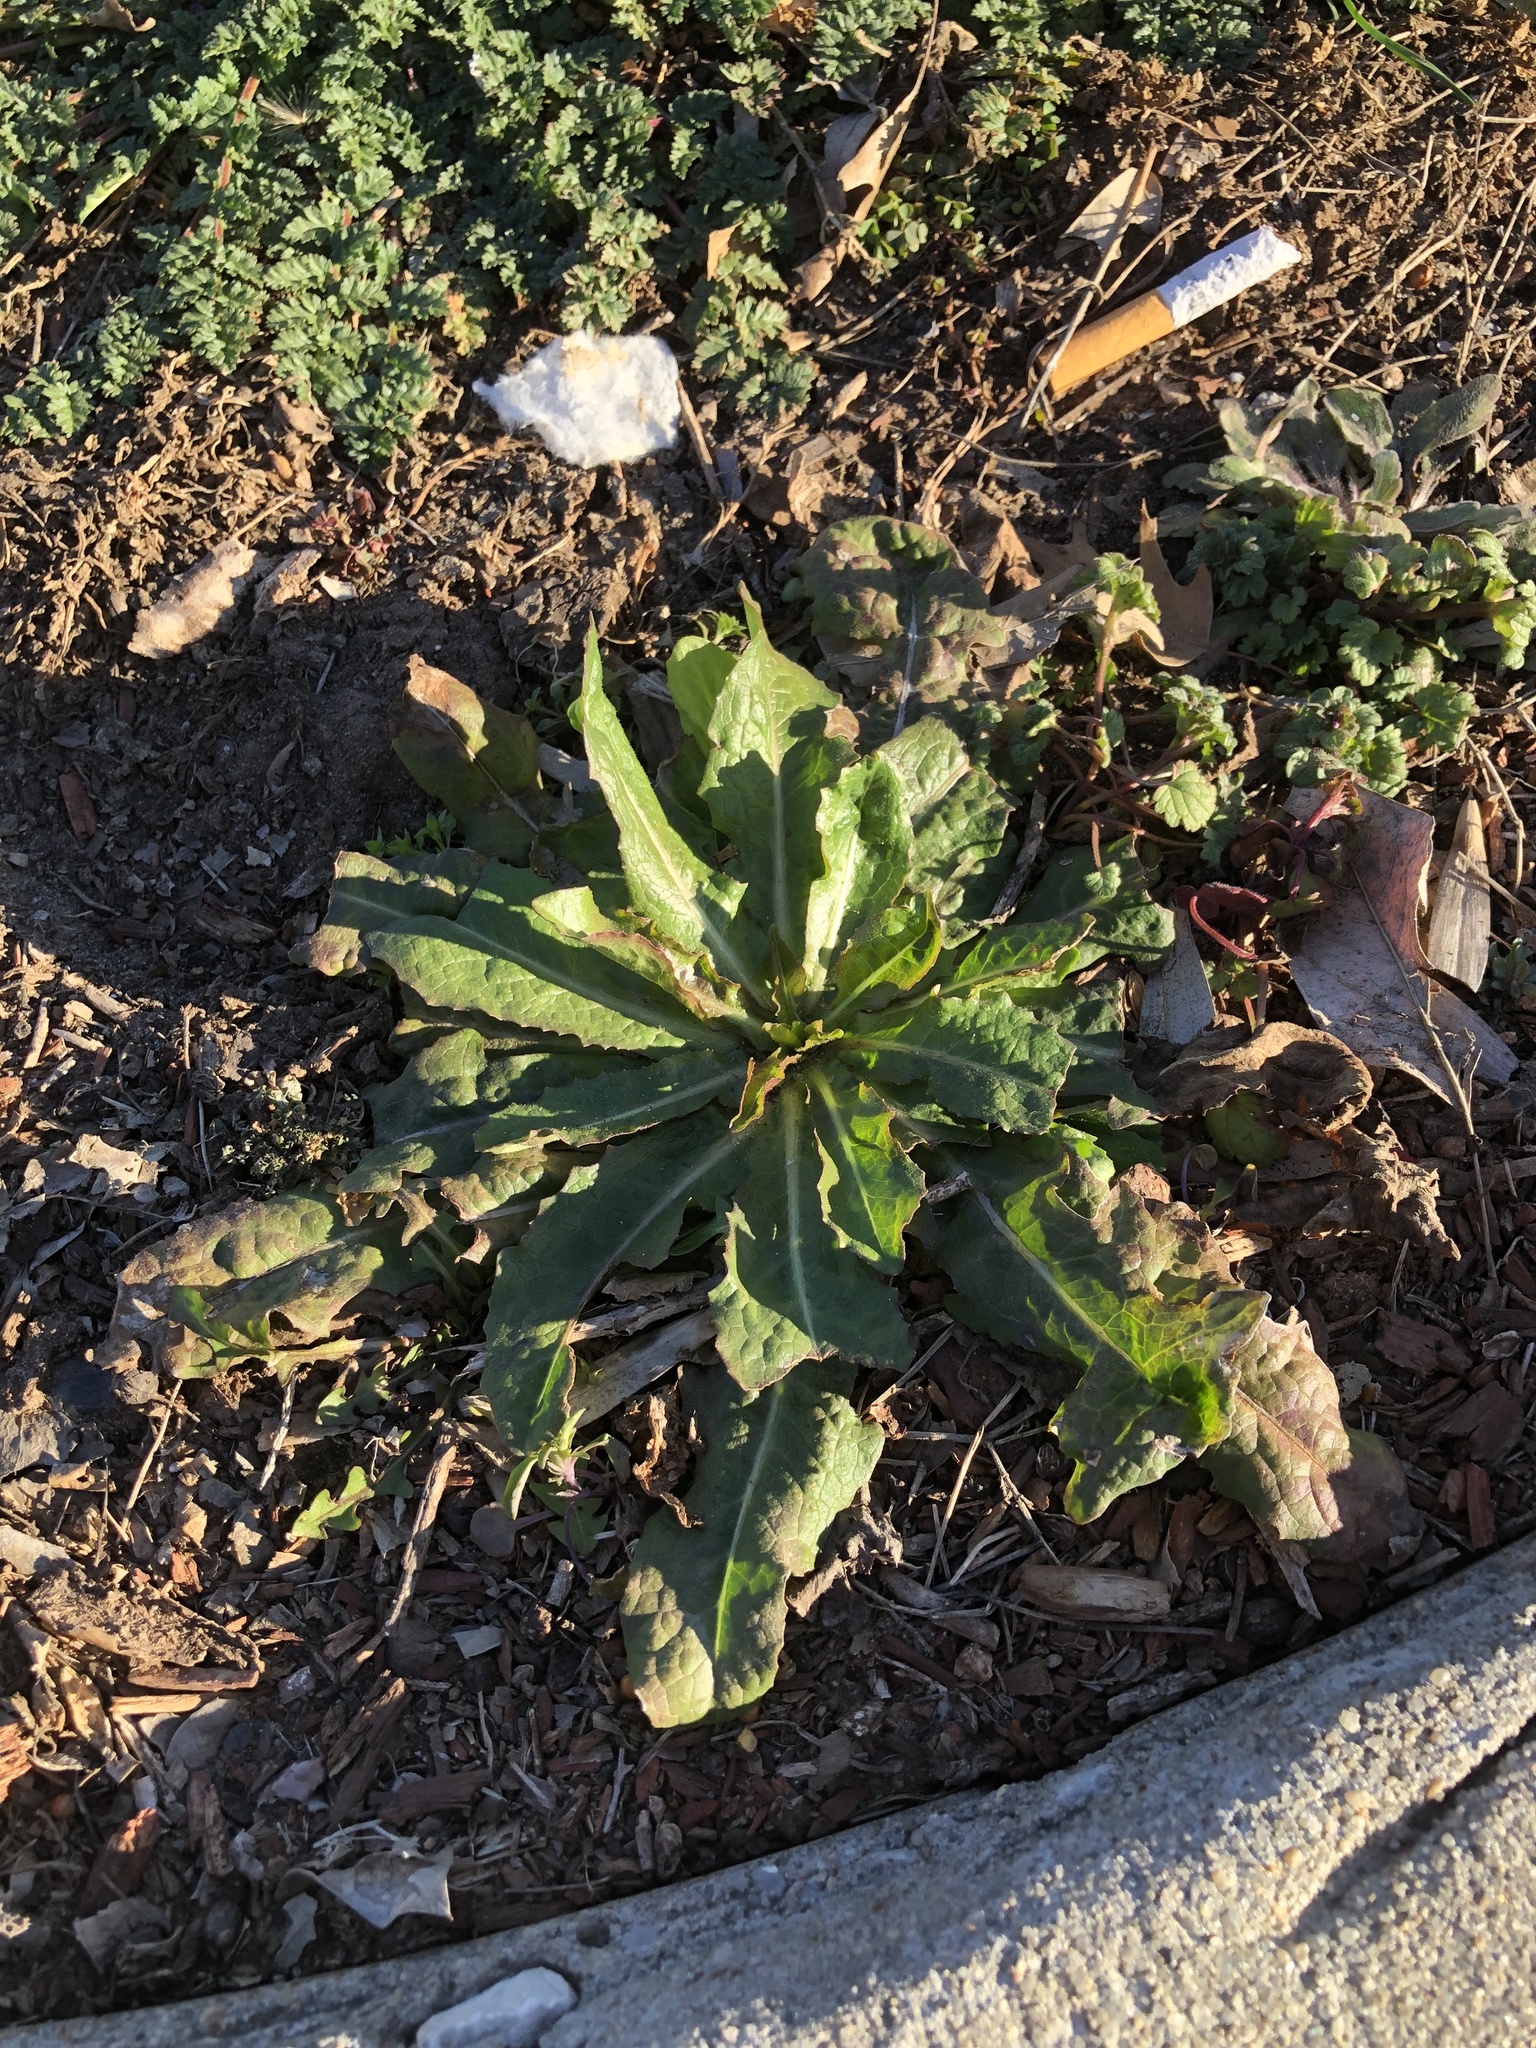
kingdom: Plantae
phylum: Tracheophyta
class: Magnoliopsida
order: Asterales
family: Asteraceae
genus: Lactuca
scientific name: Lactuca serriola
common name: Prickly lettuce
